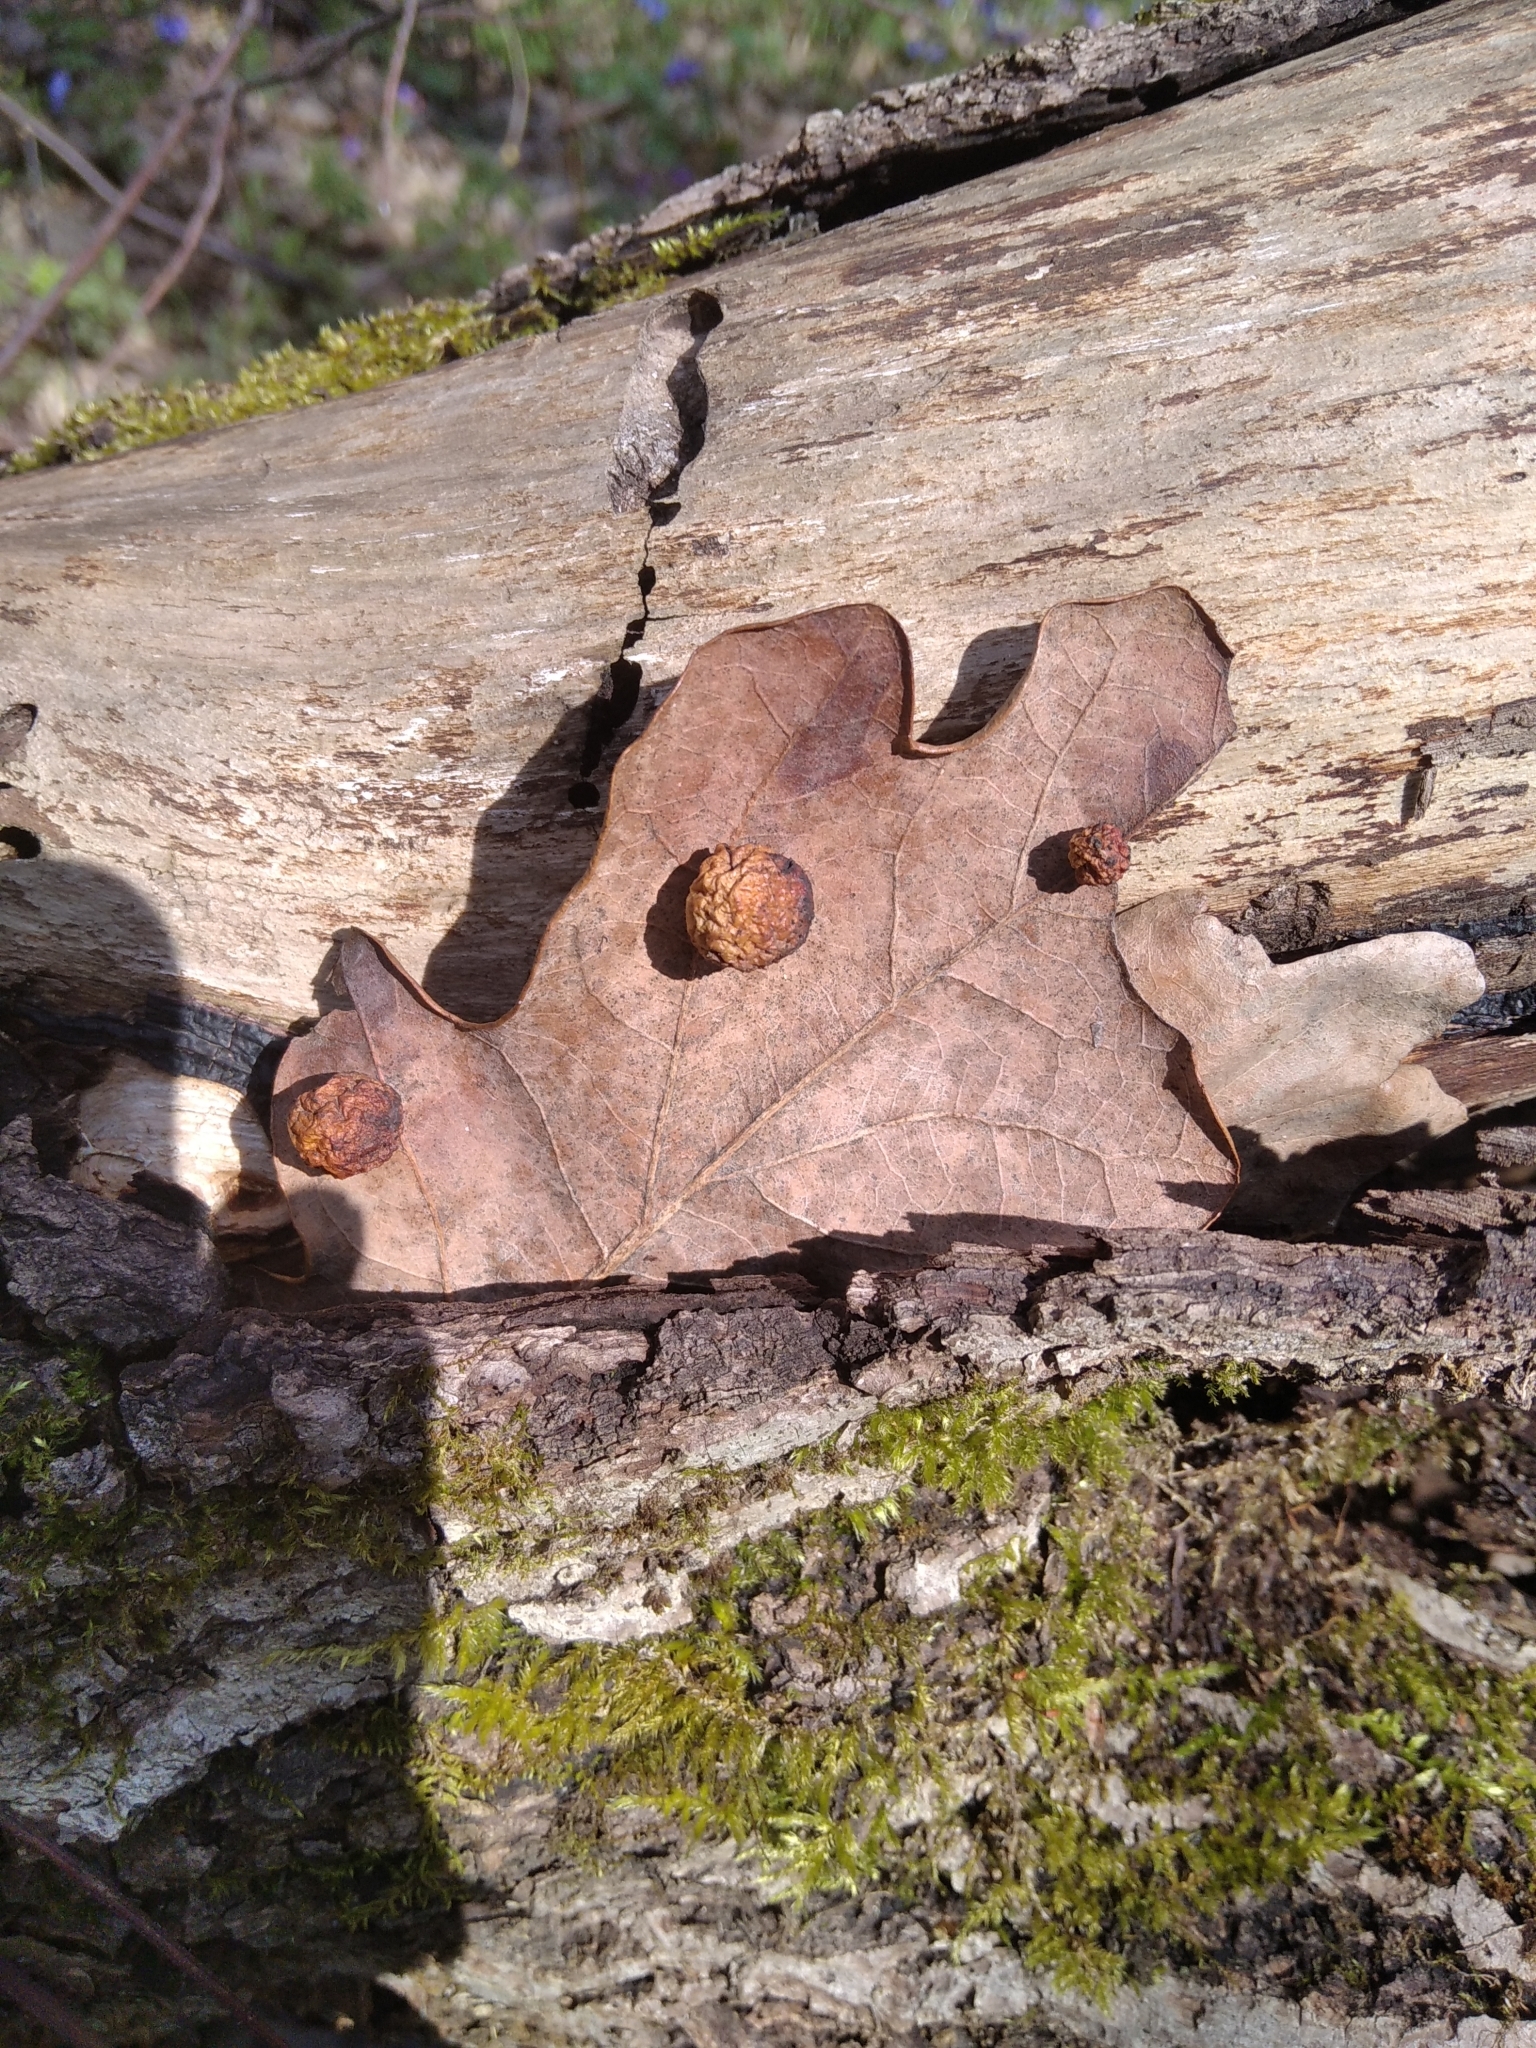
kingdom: Plantae
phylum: Tracheophyta
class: Magnoliopsida
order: Fagales
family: Fagaceae
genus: Quercus
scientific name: Quercus robur
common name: Pedunculate oak
